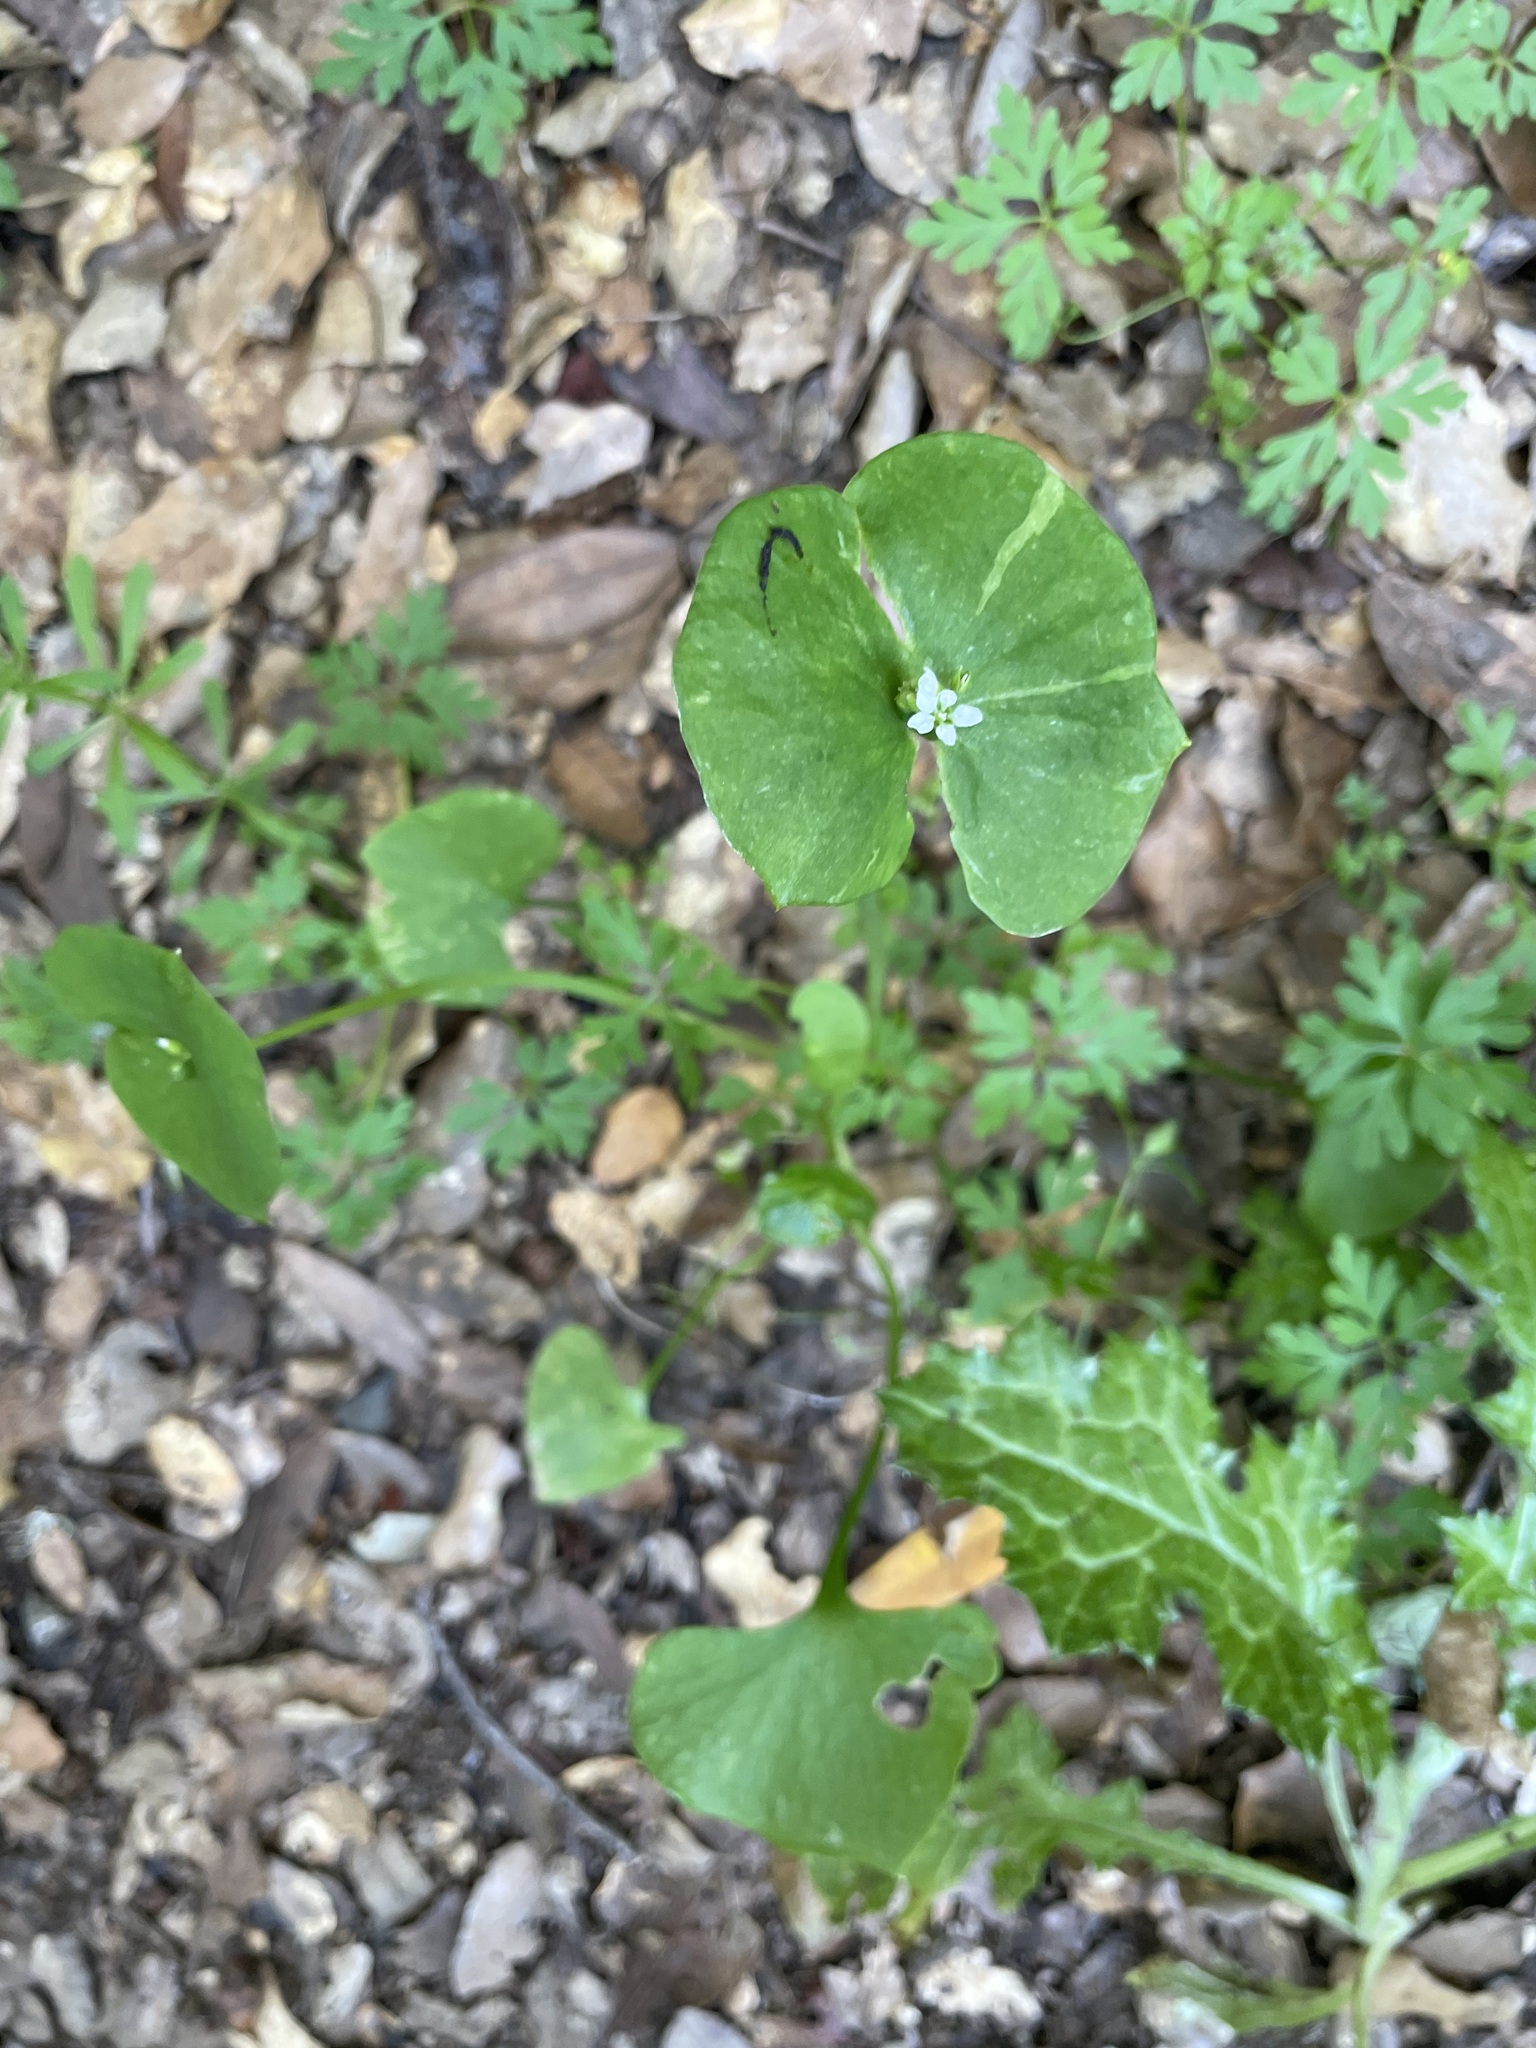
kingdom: Plantae
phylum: Tracheophyta
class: Magnoliopsida
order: Caryophyllales
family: Montiaceae
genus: Claytonia
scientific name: Claytonia perfoliata
